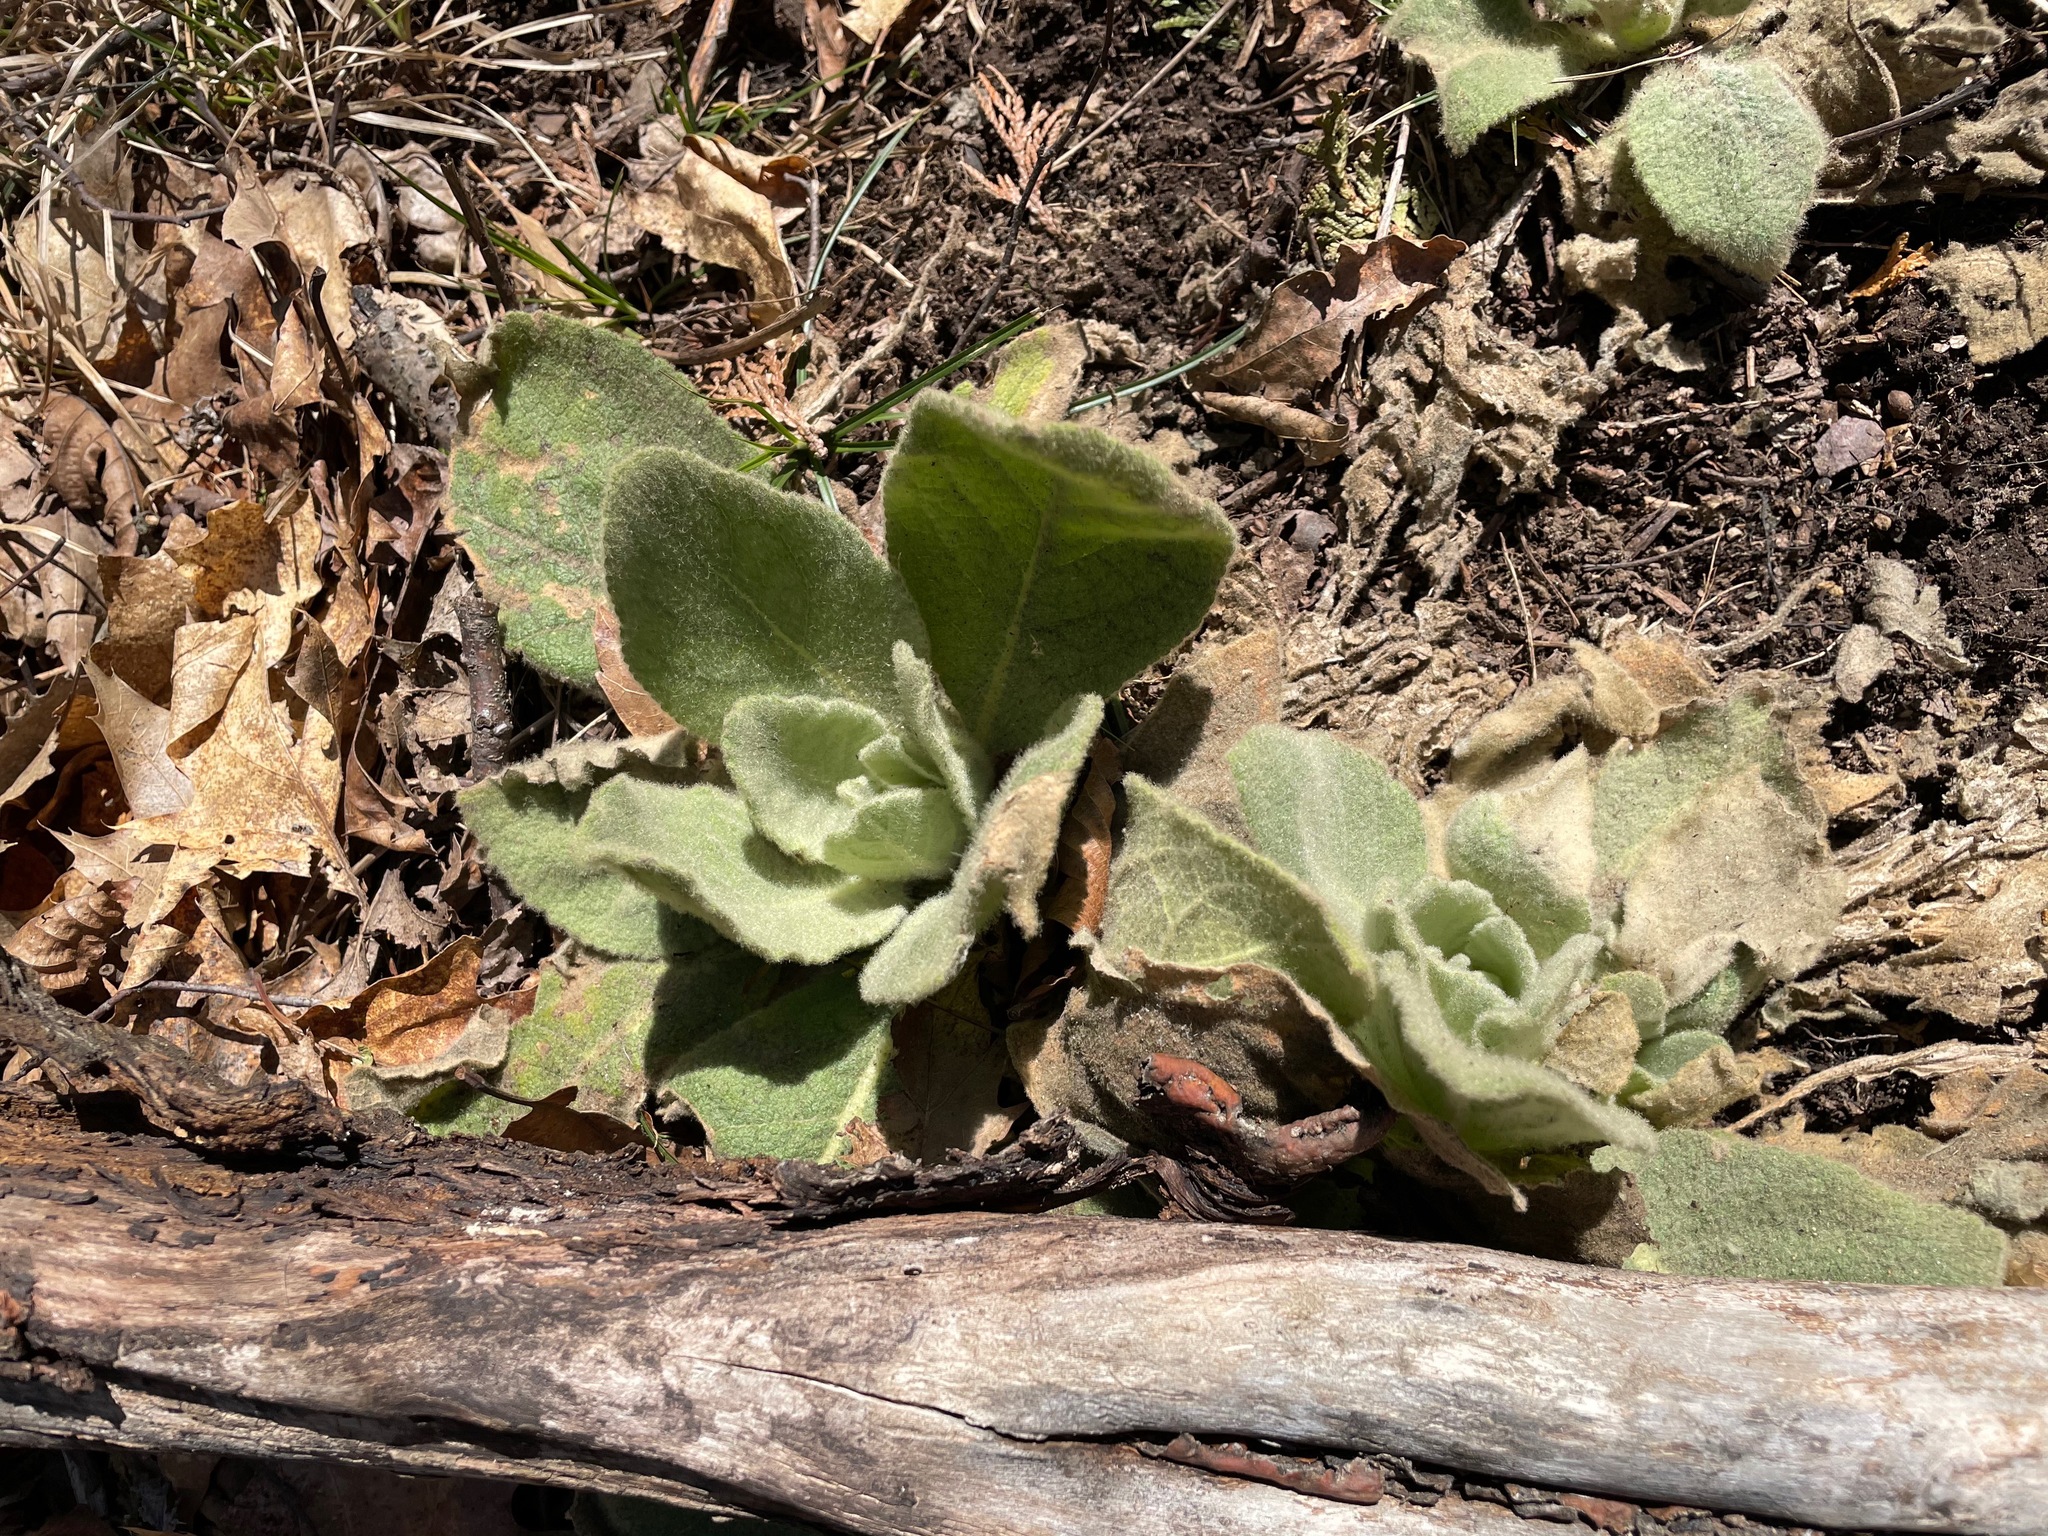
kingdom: Plantae
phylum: Tracheophyta
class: Magnoliopsida
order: Lamiales
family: Scrophulariaceae
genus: Verbascum
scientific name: Verbascum thapsus
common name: Common mullein
